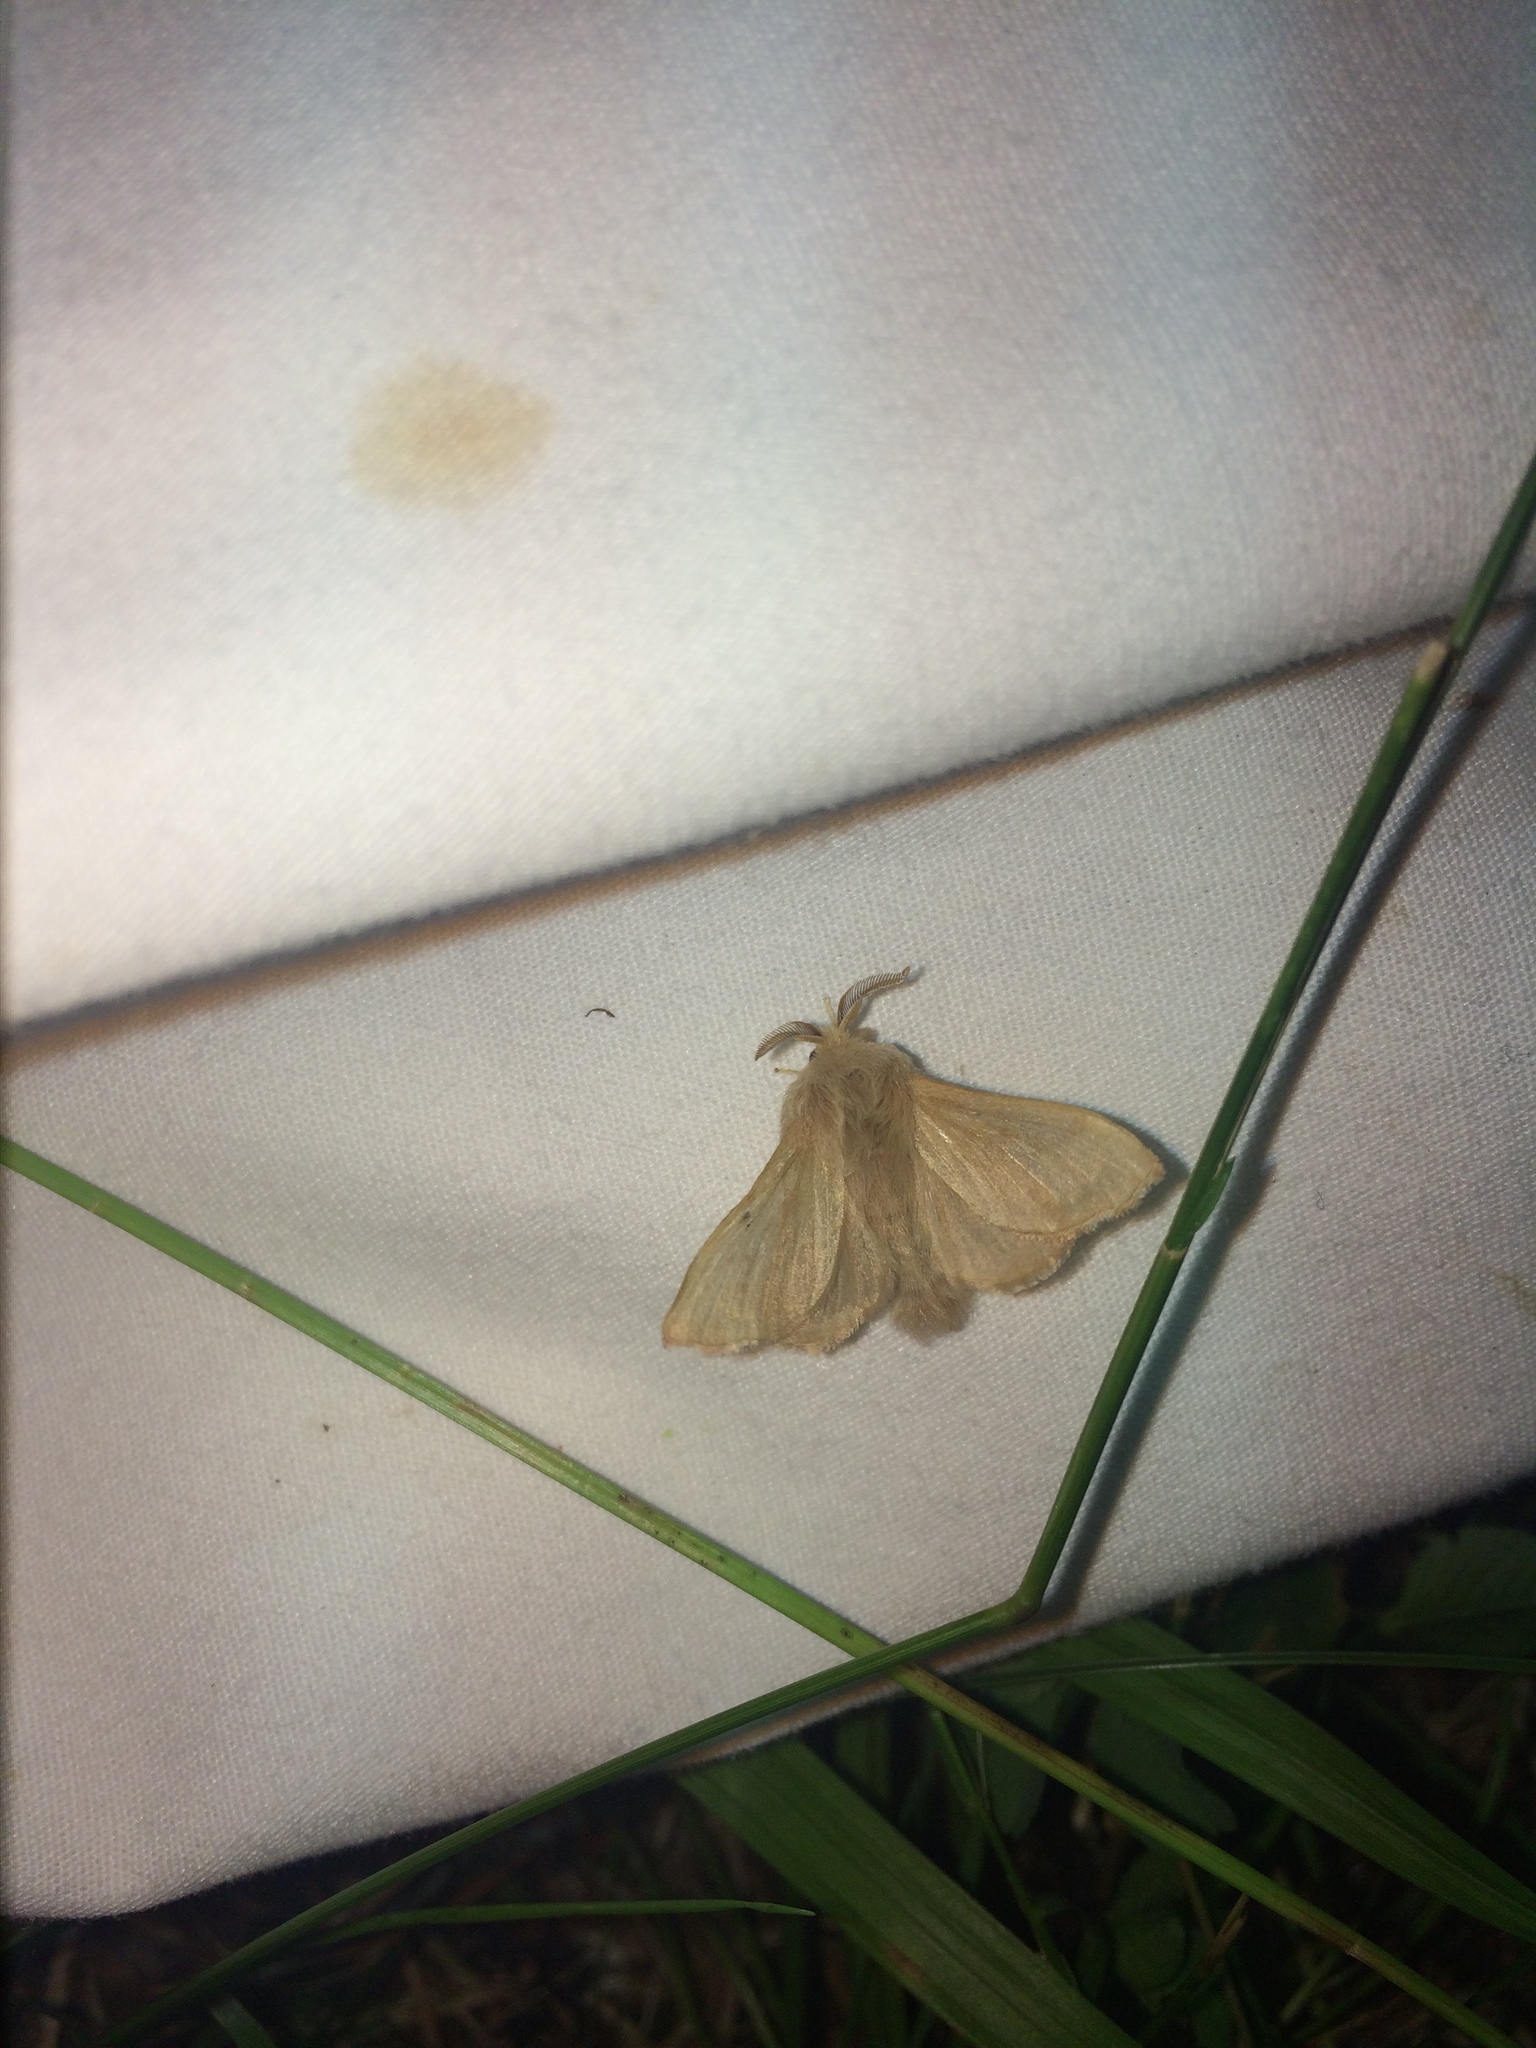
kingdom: Animalia
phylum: Arthropoda
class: Insecta
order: Lepidoptera
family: Lasiocampidae
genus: Malacosoma
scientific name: Malacosoma disstria
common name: Forest tent caterpillar
